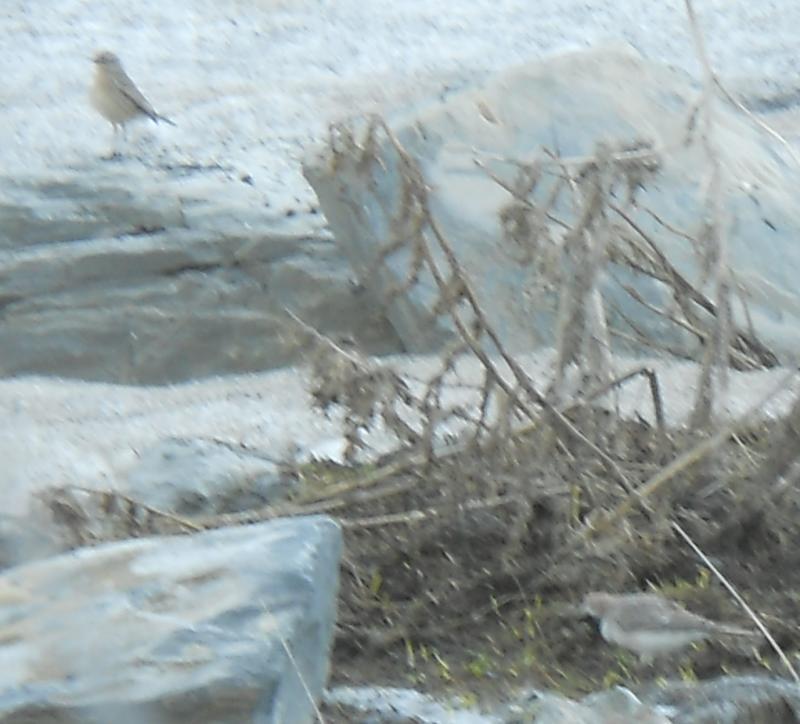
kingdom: Animalia
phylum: Chordata
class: Aves
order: Passeriformes
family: Alaudidae
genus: Eremophila
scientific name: Eremophila alpestris
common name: Horned lark
